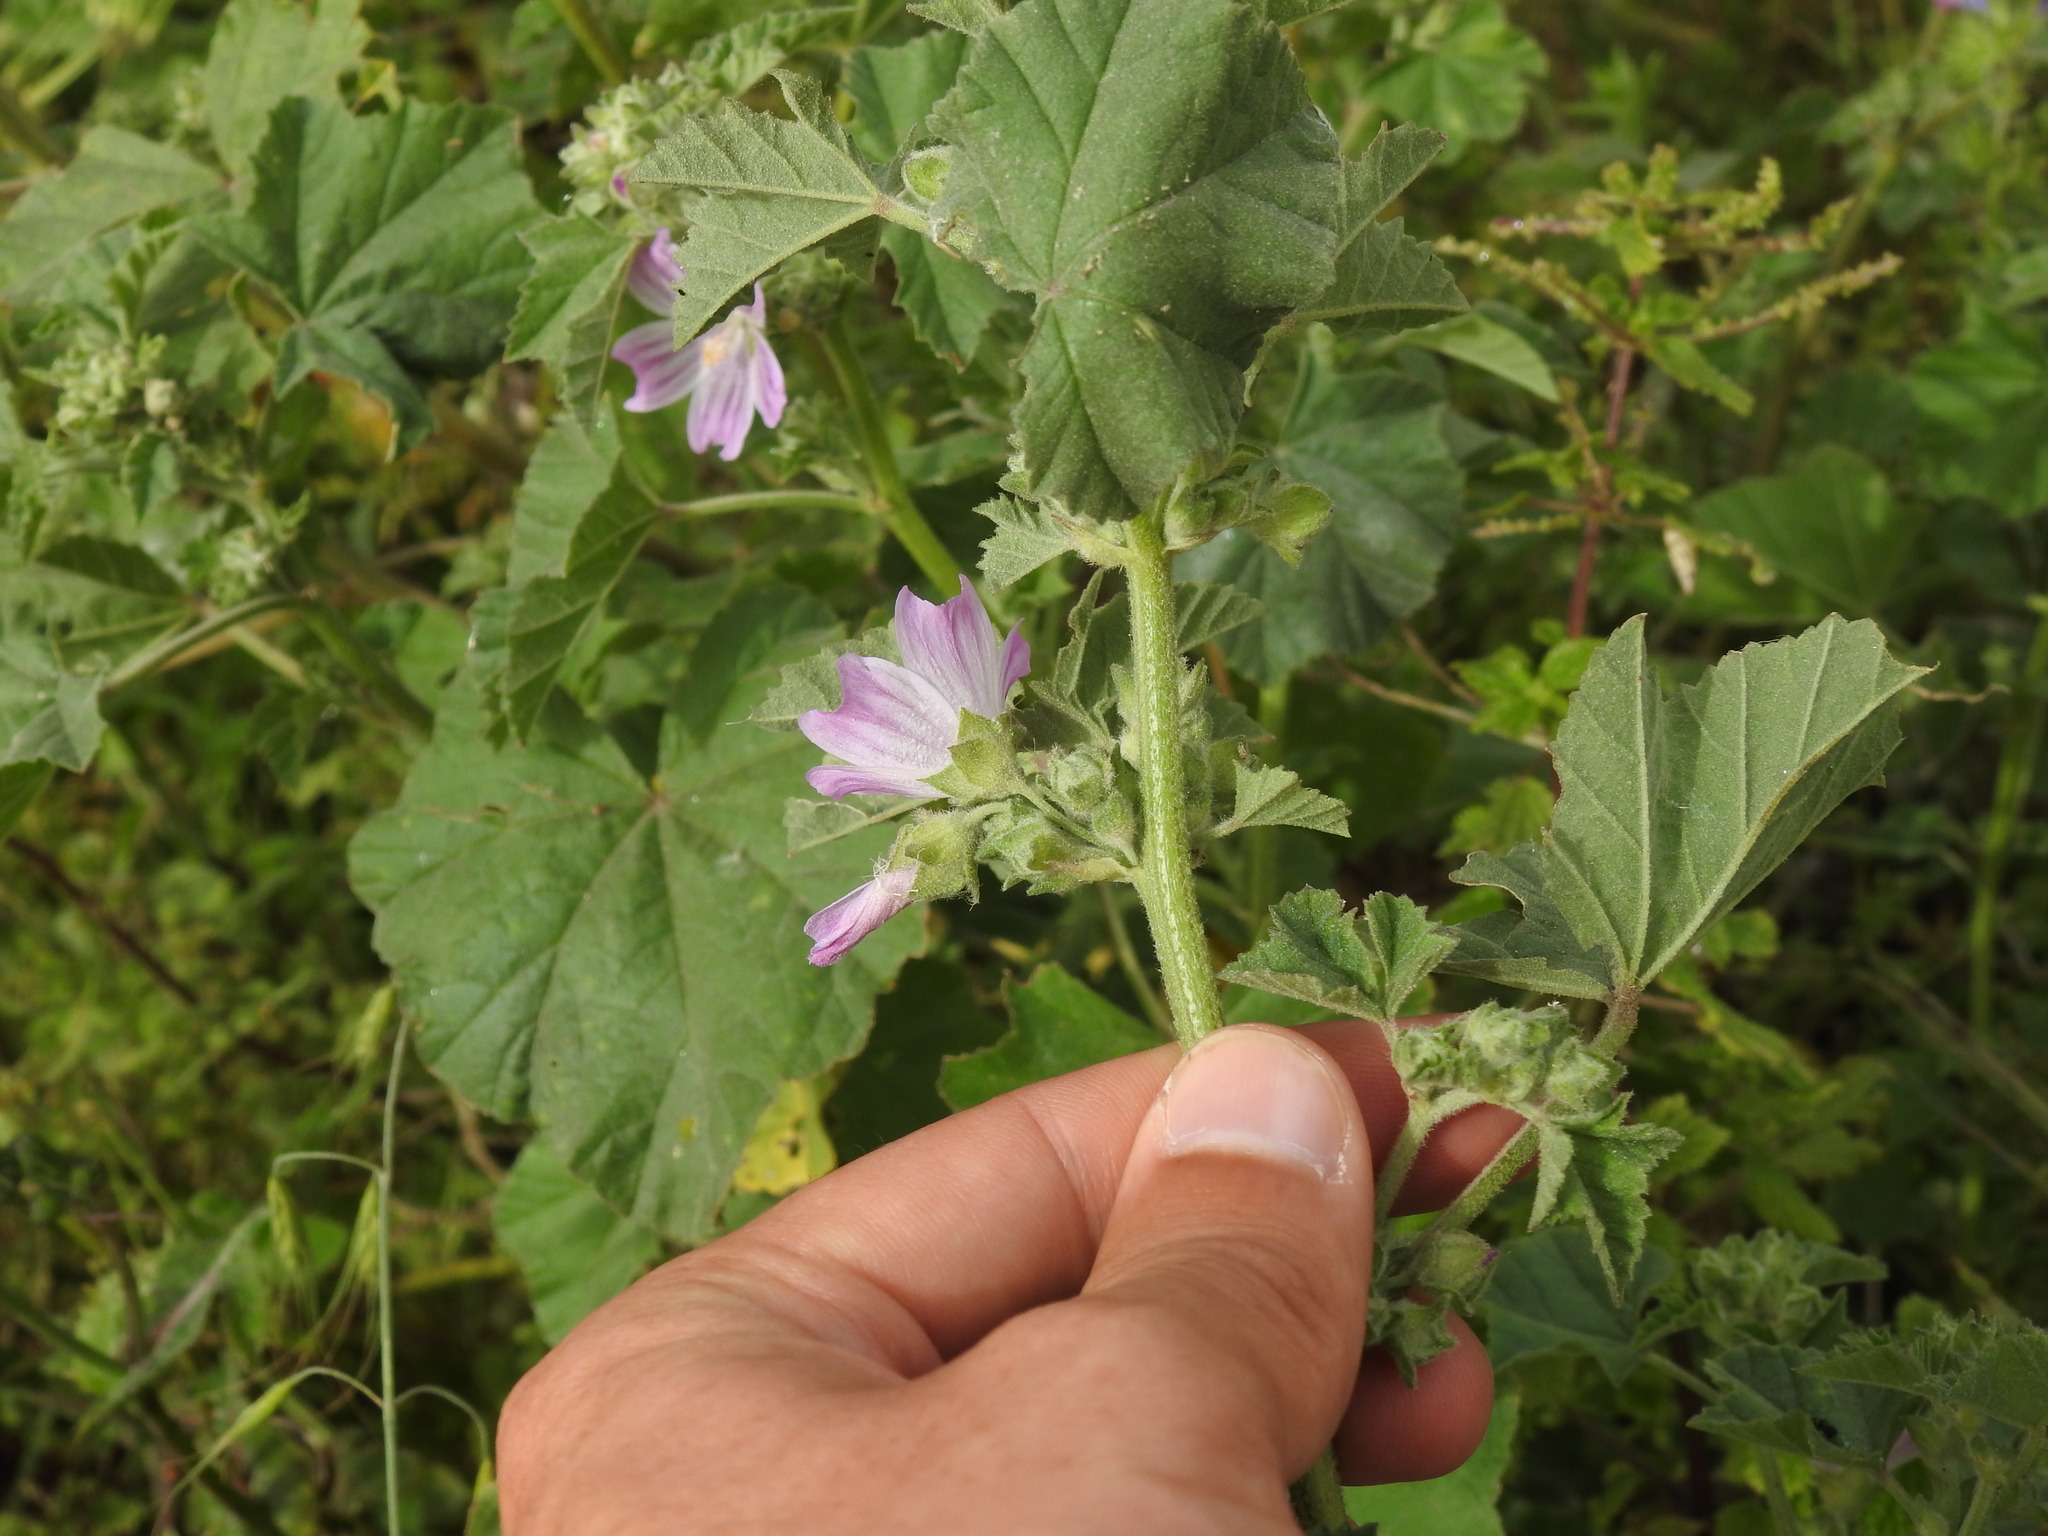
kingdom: Plantae
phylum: Tracheophyta
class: Magnoliopsida
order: Malvales
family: Malvaceae
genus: Malva
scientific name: Malva multiflora
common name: Cheeseweed
